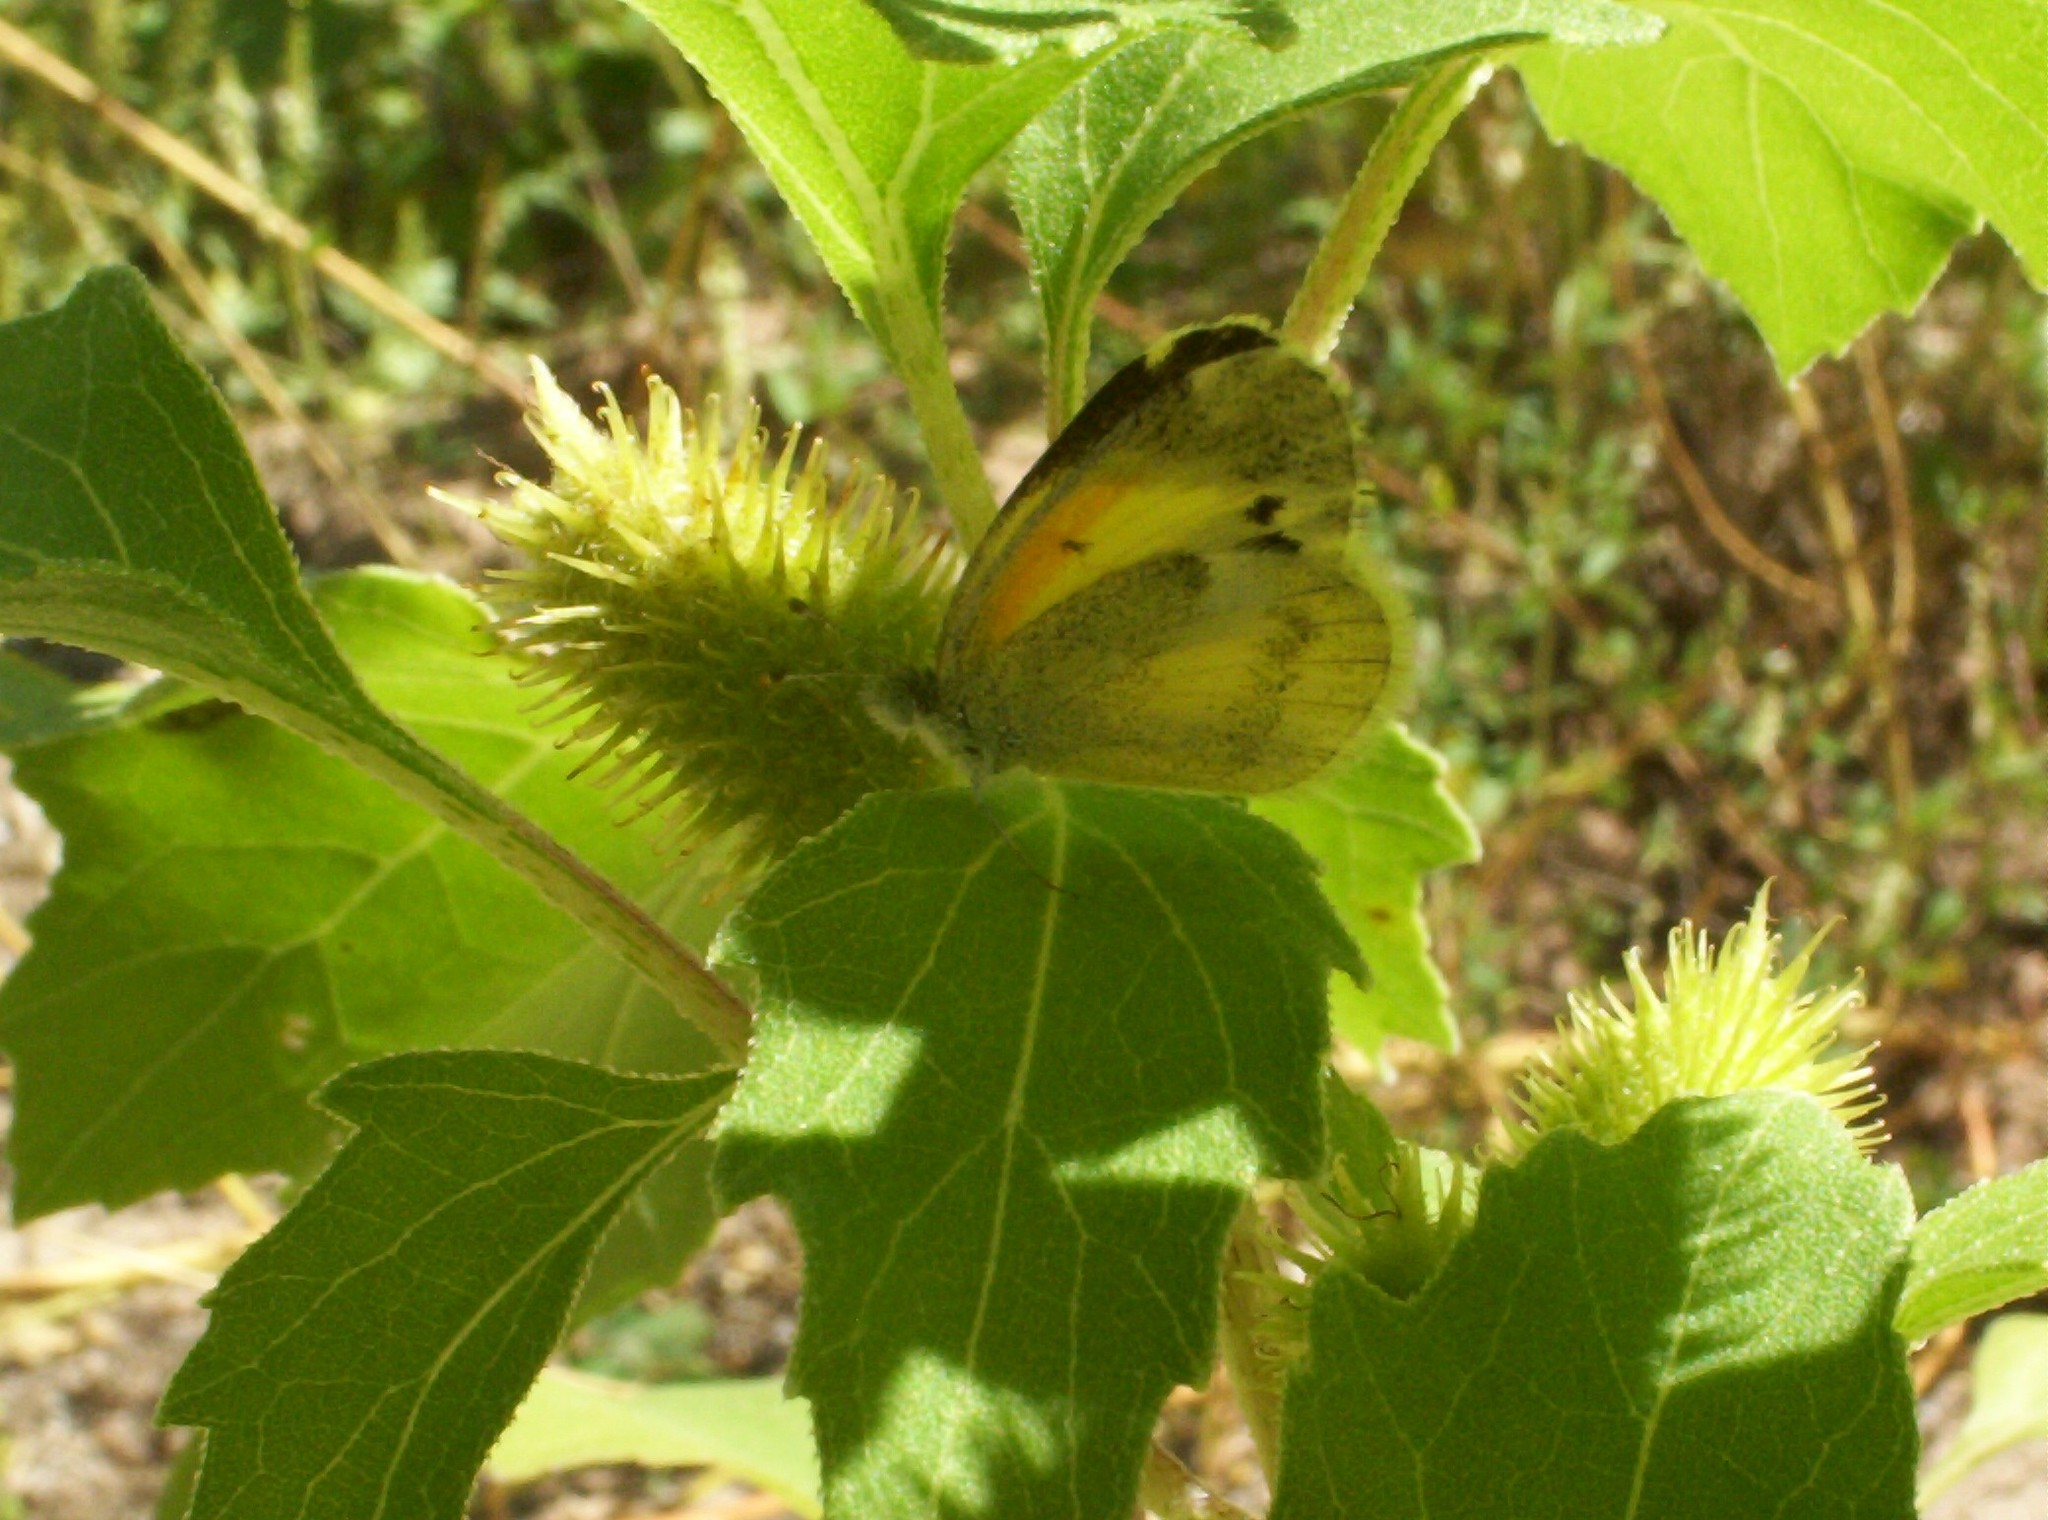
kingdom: Animalia
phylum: Arthropoda
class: Insecta
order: Lepidoptera
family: Pieridae
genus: Nathalis
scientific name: Nathalis iole
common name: Dainty sulphur
